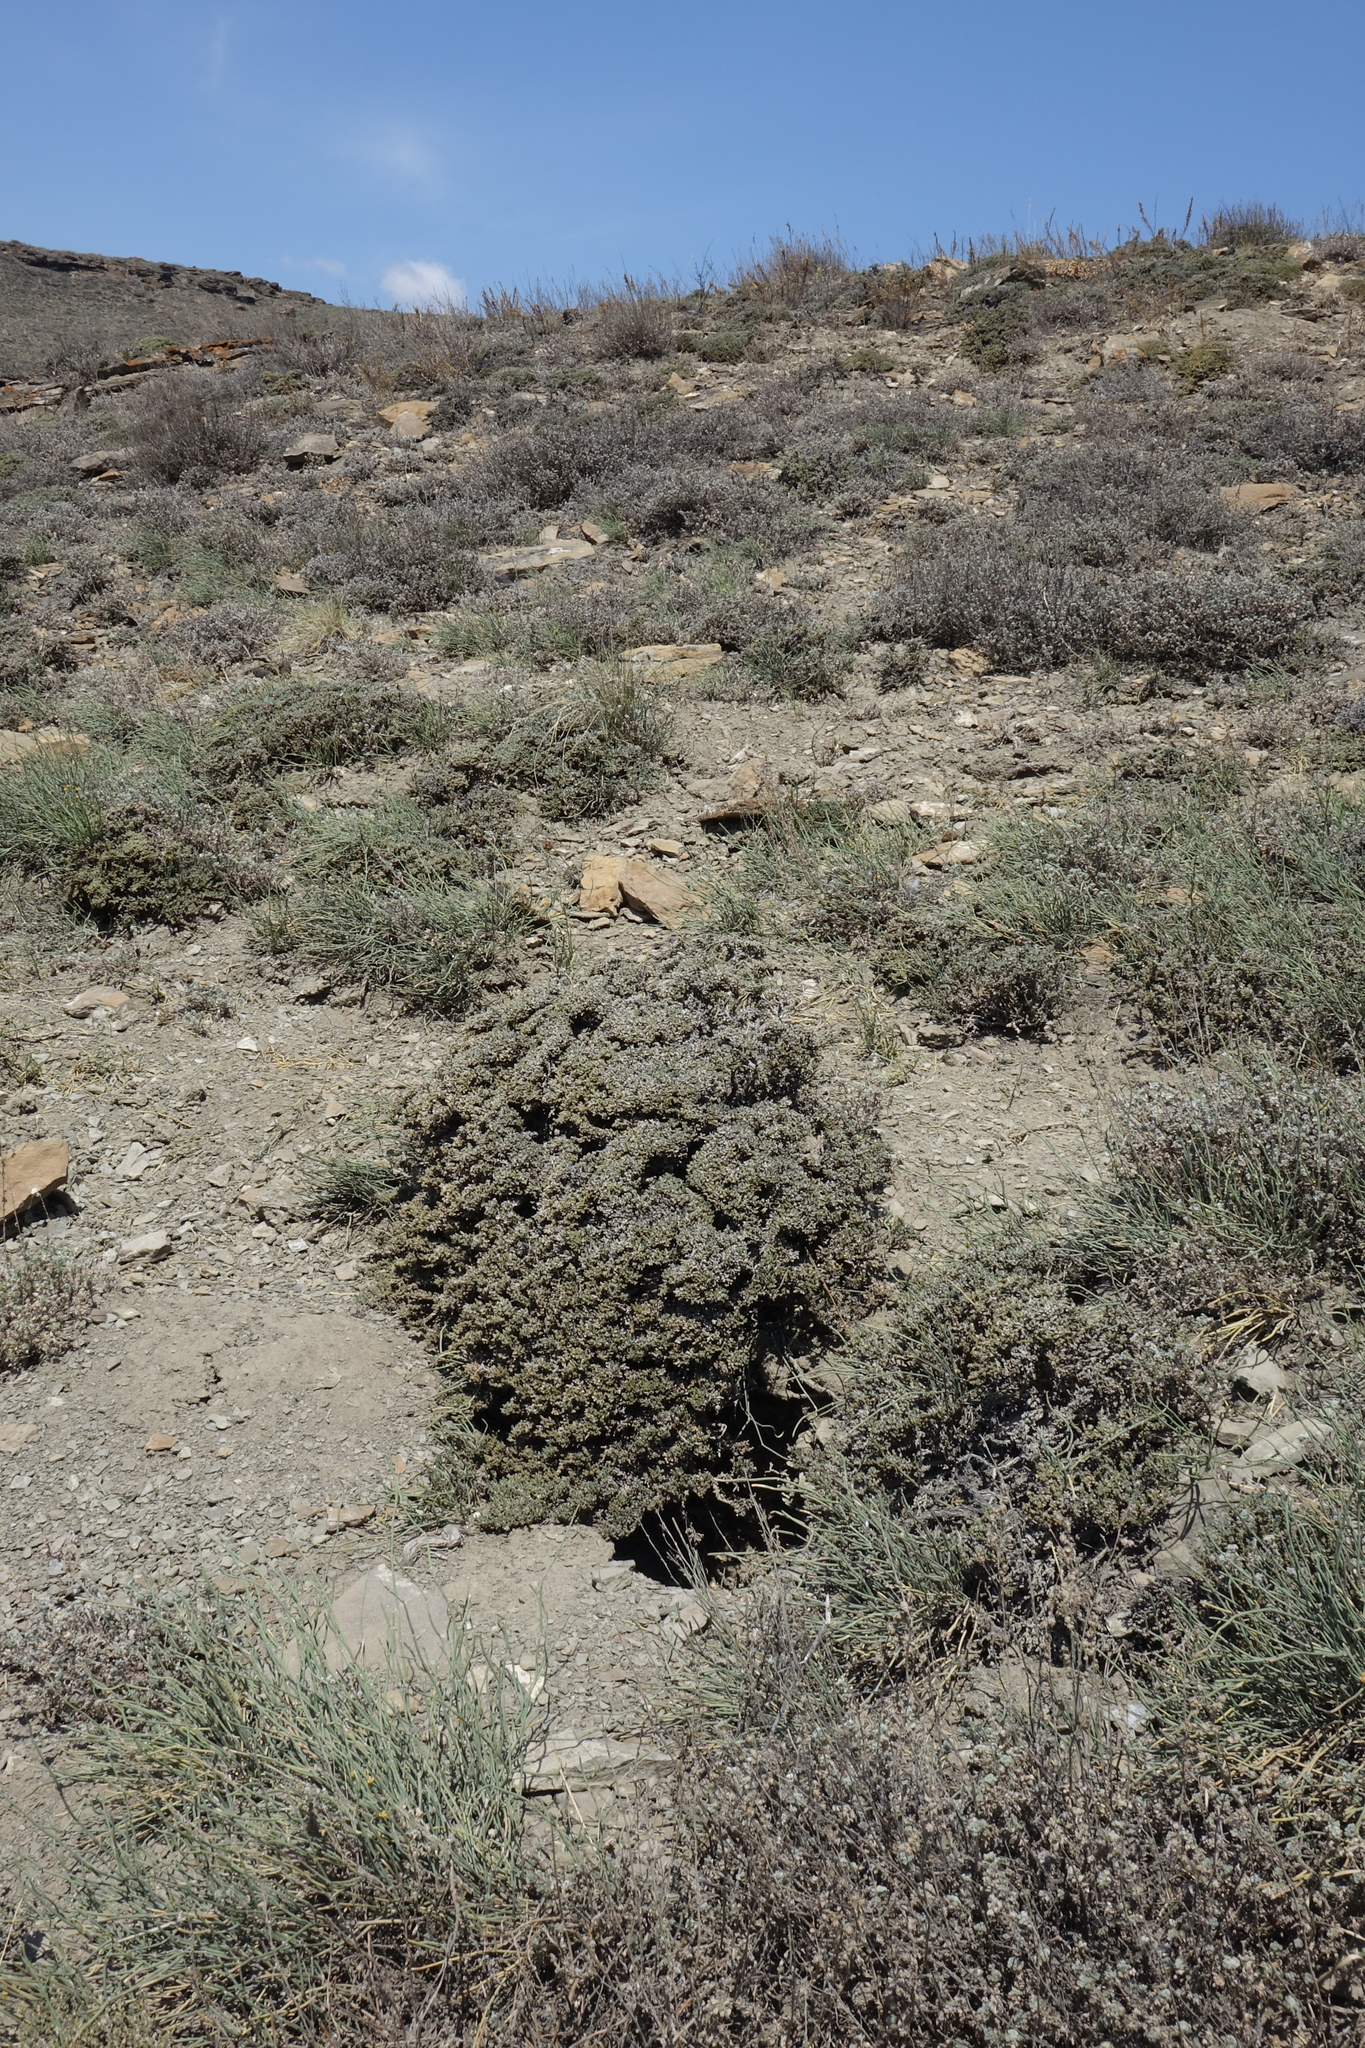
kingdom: Plantae
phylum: Tracheophyta
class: Magnoliopsida
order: Caryophyllales
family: Amaranthaceae
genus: Nanophyton
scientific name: Nanophyton grubovii
